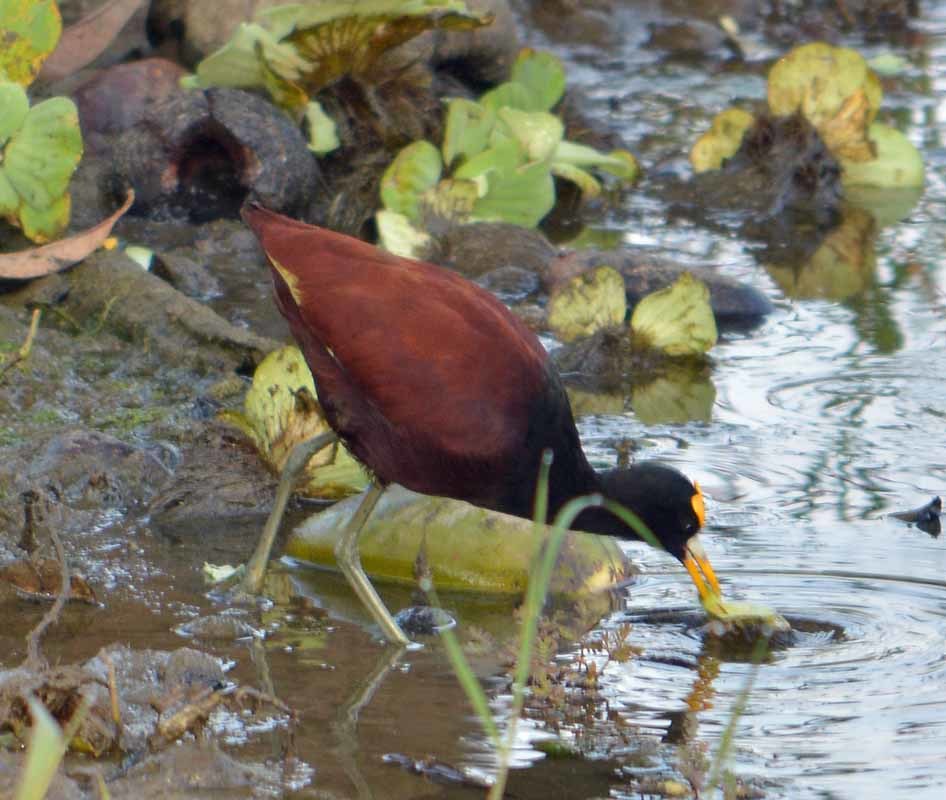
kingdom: Animalia
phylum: Chordata
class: Aves
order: Charadriiformes
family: Jacanidae
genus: Jacana
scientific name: Jacana spinosa
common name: Northern jacana
